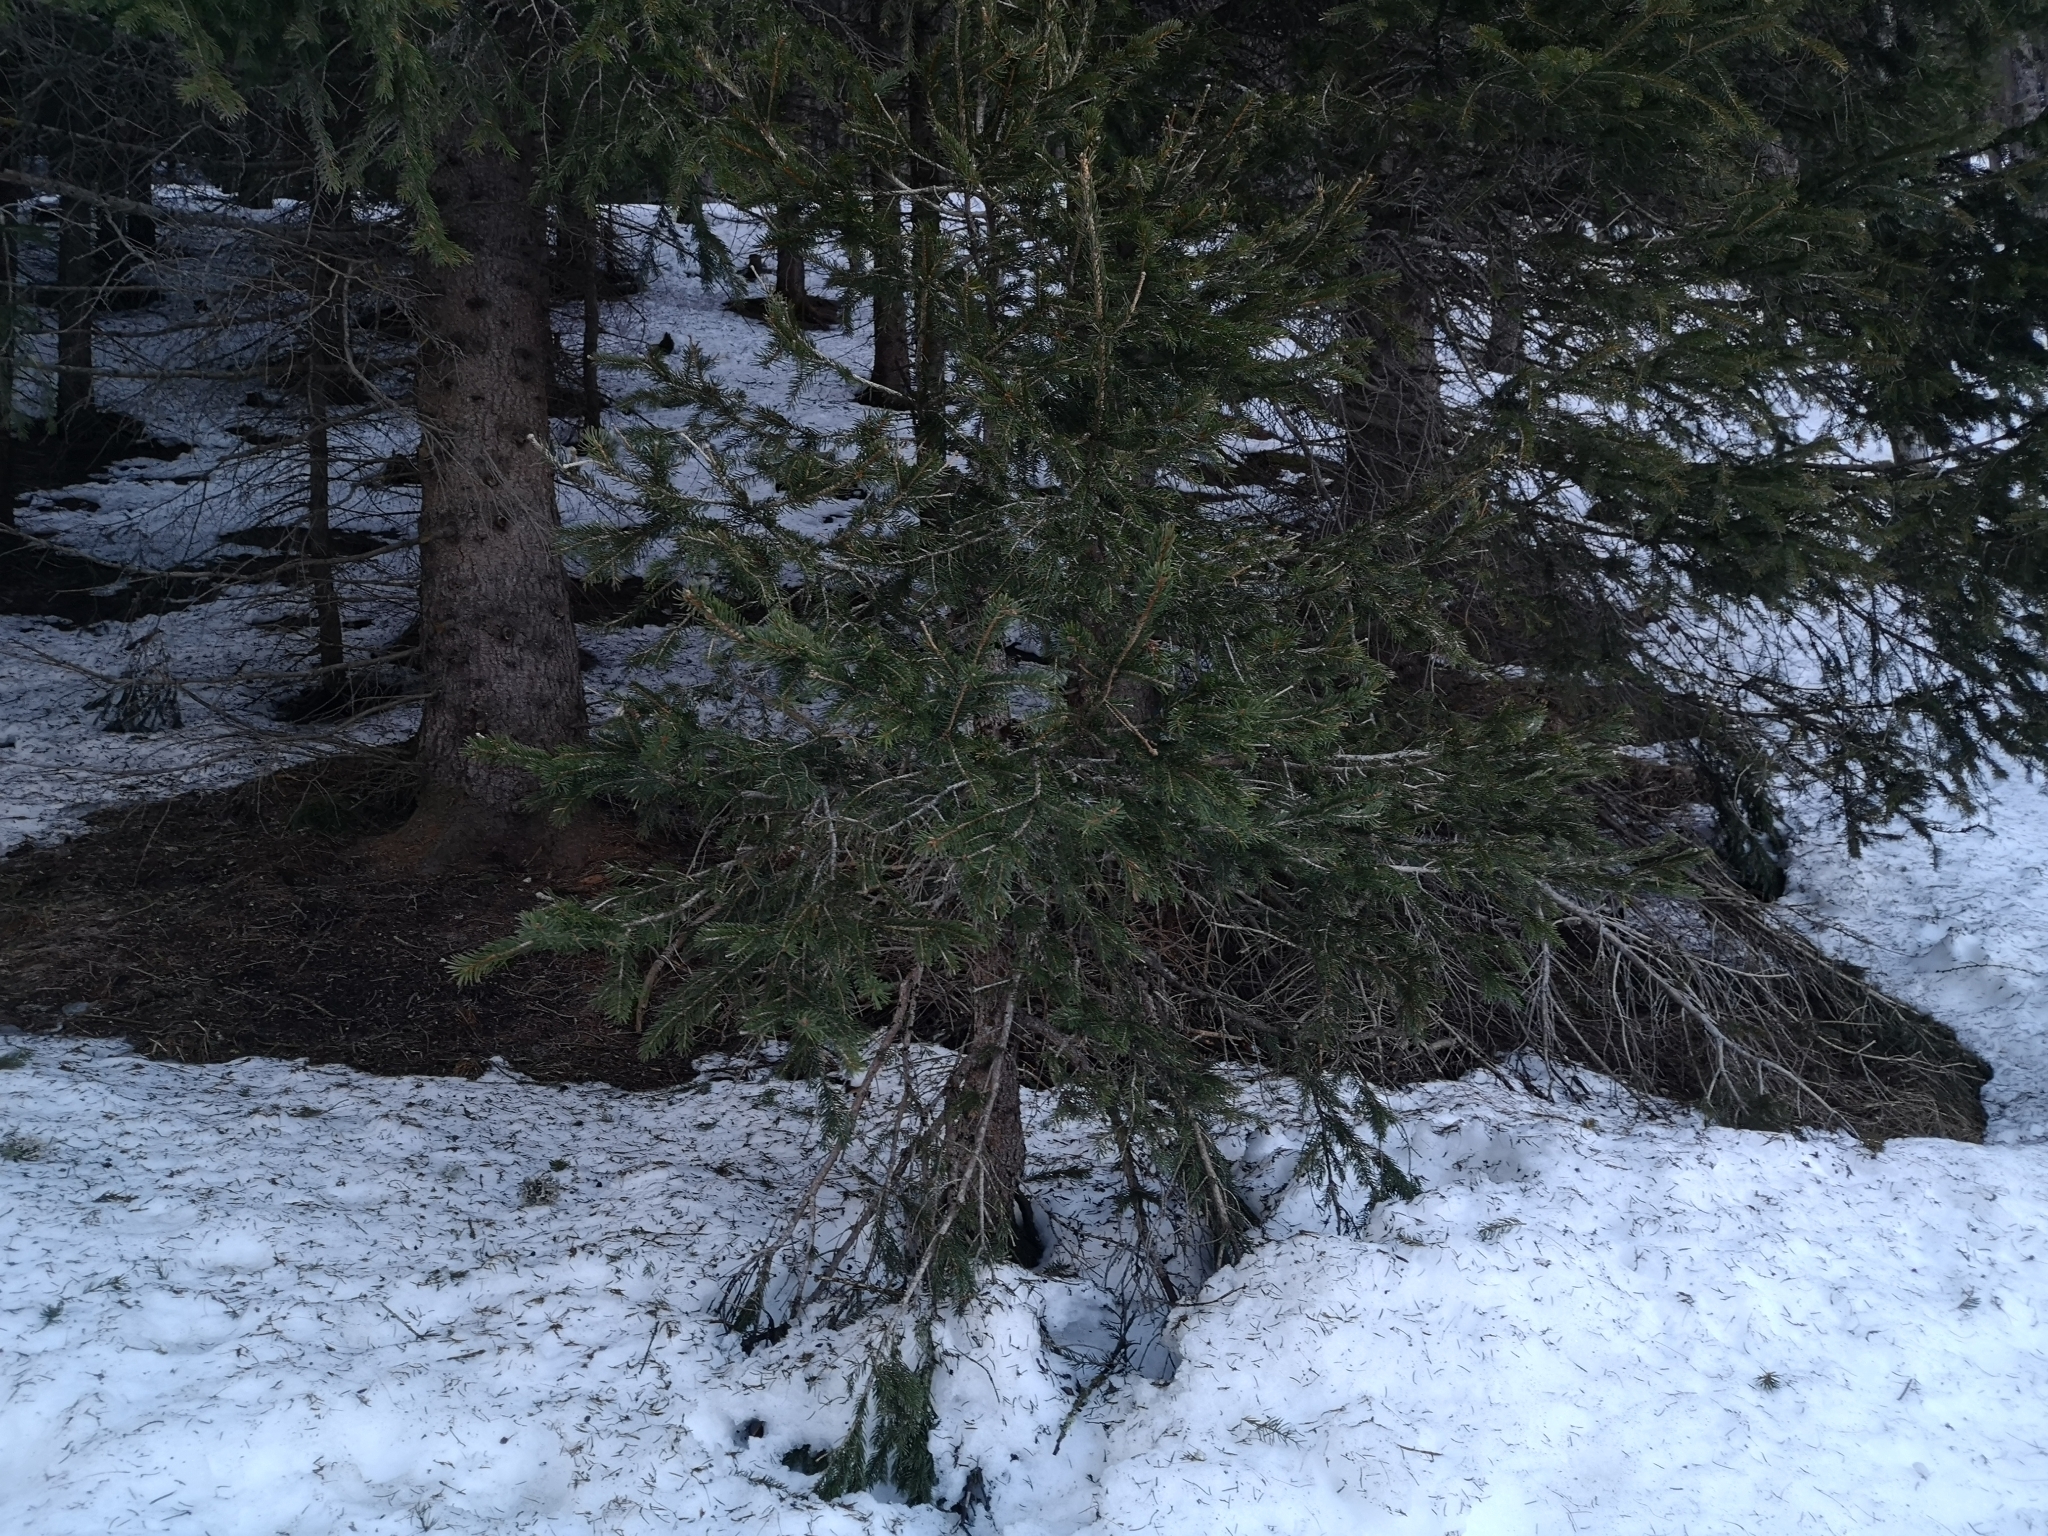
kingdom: Plantae
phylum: Tracheophyta
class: Pinopsida
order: Pinales
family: Pinaceae
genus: Picea
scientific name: Picea abies
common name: Norway spruce
